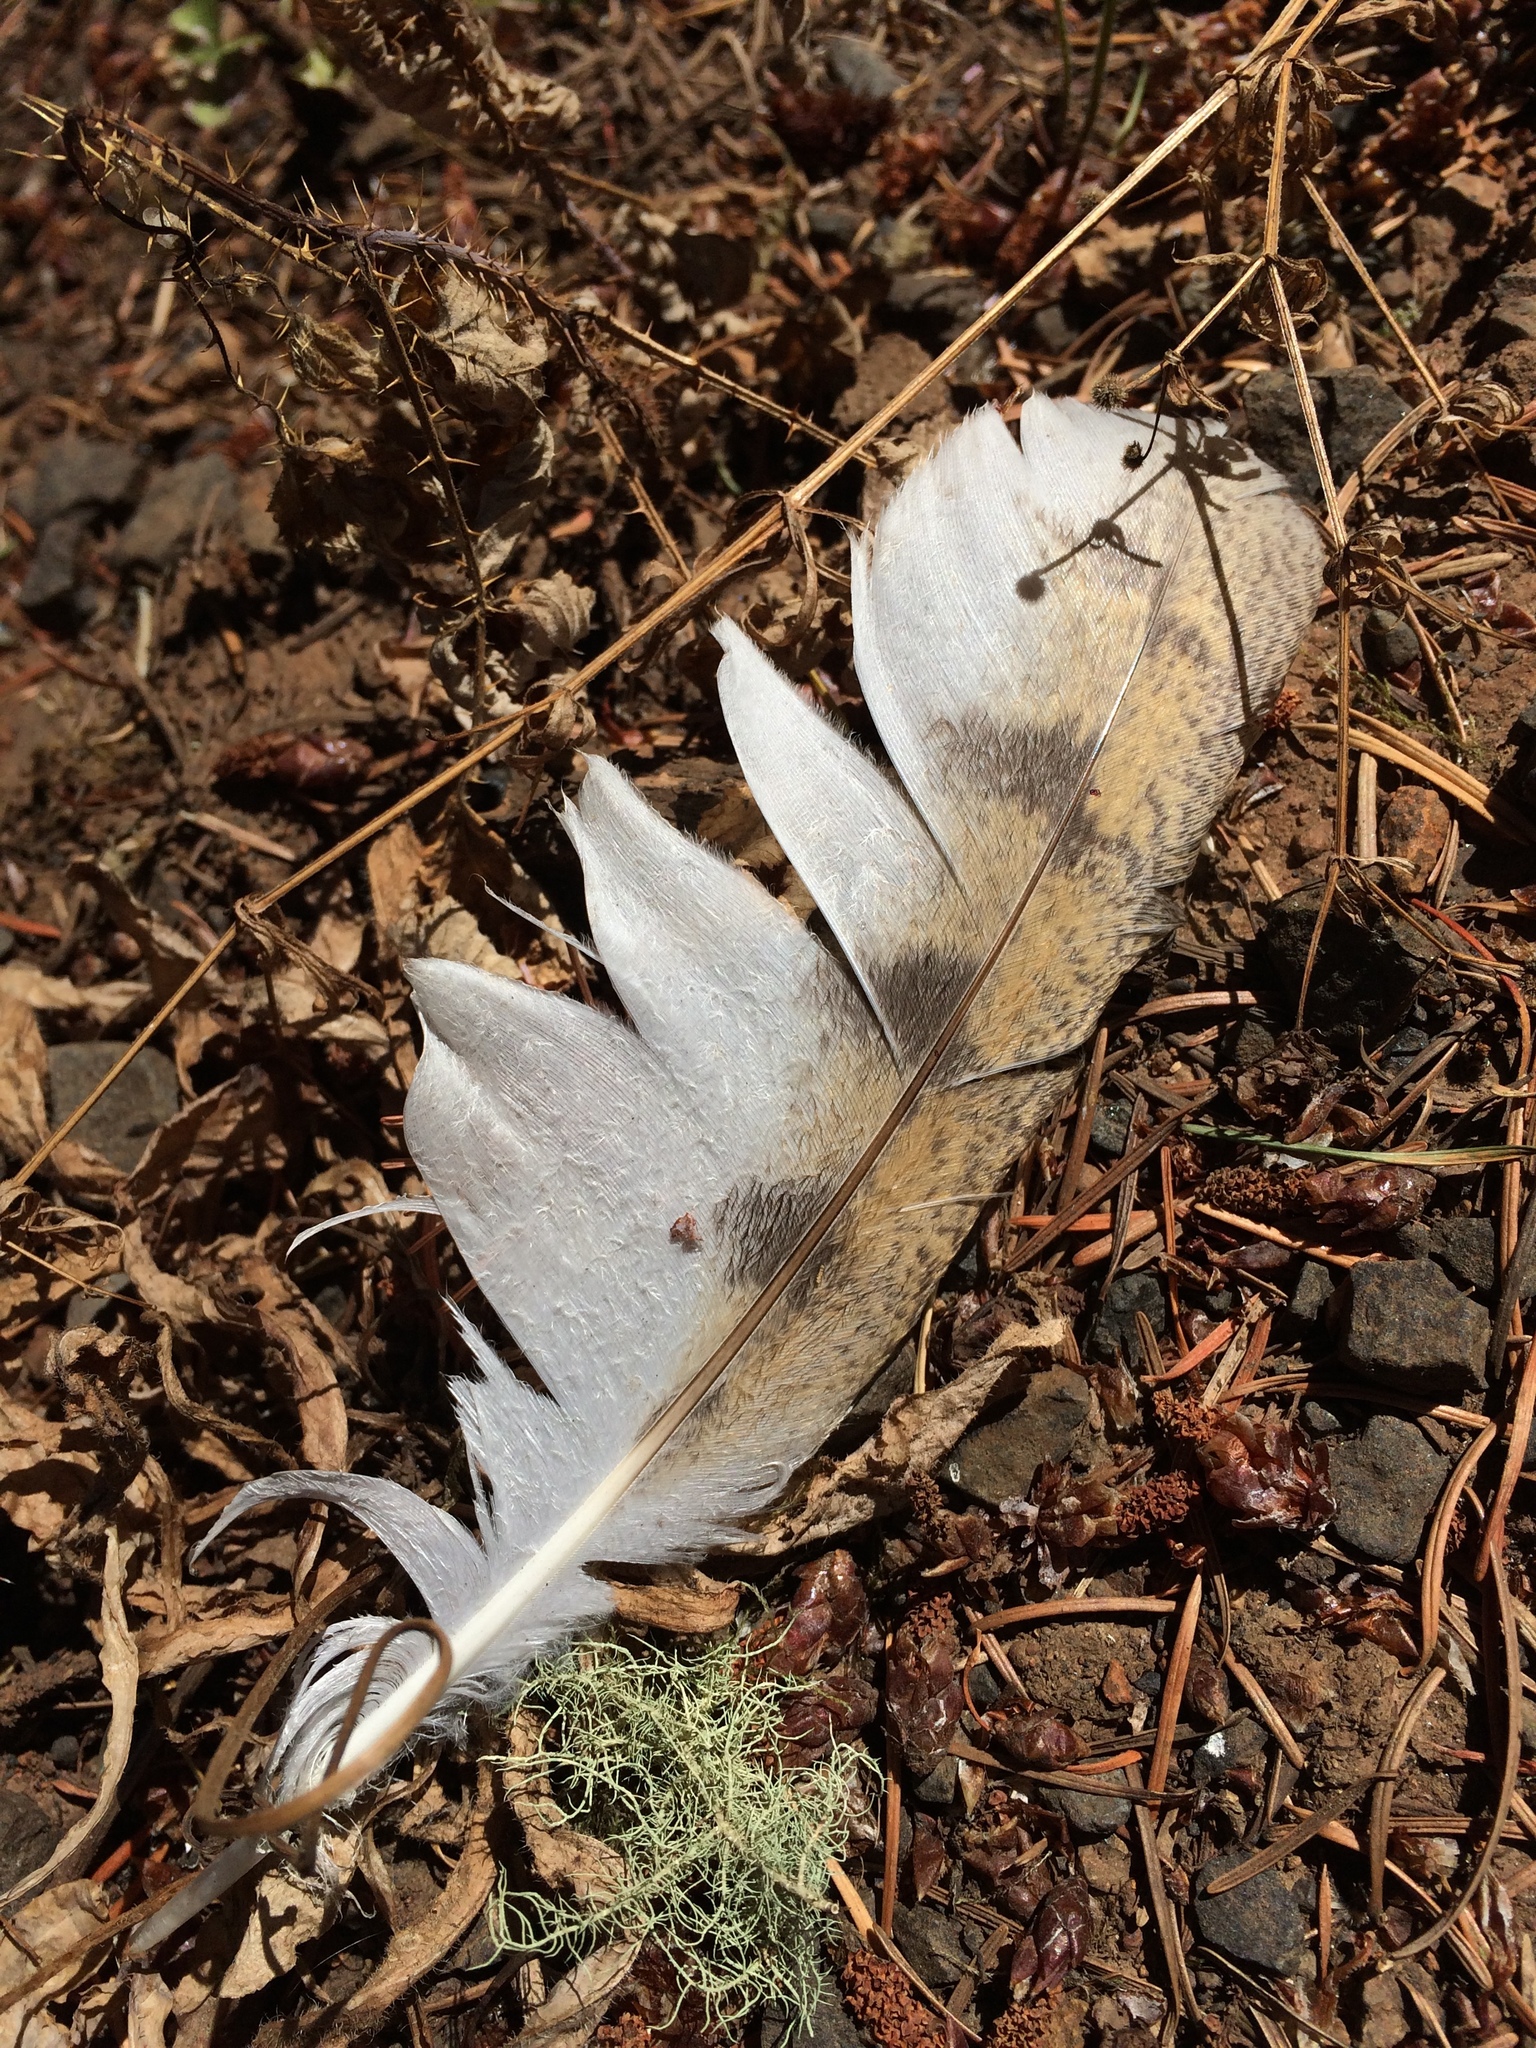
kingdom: Animalia
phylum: Chordata
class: Aves
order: Strigiformes
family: Tytonidae
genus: Tyto
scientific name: Tyto furcata
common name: American barn owl
